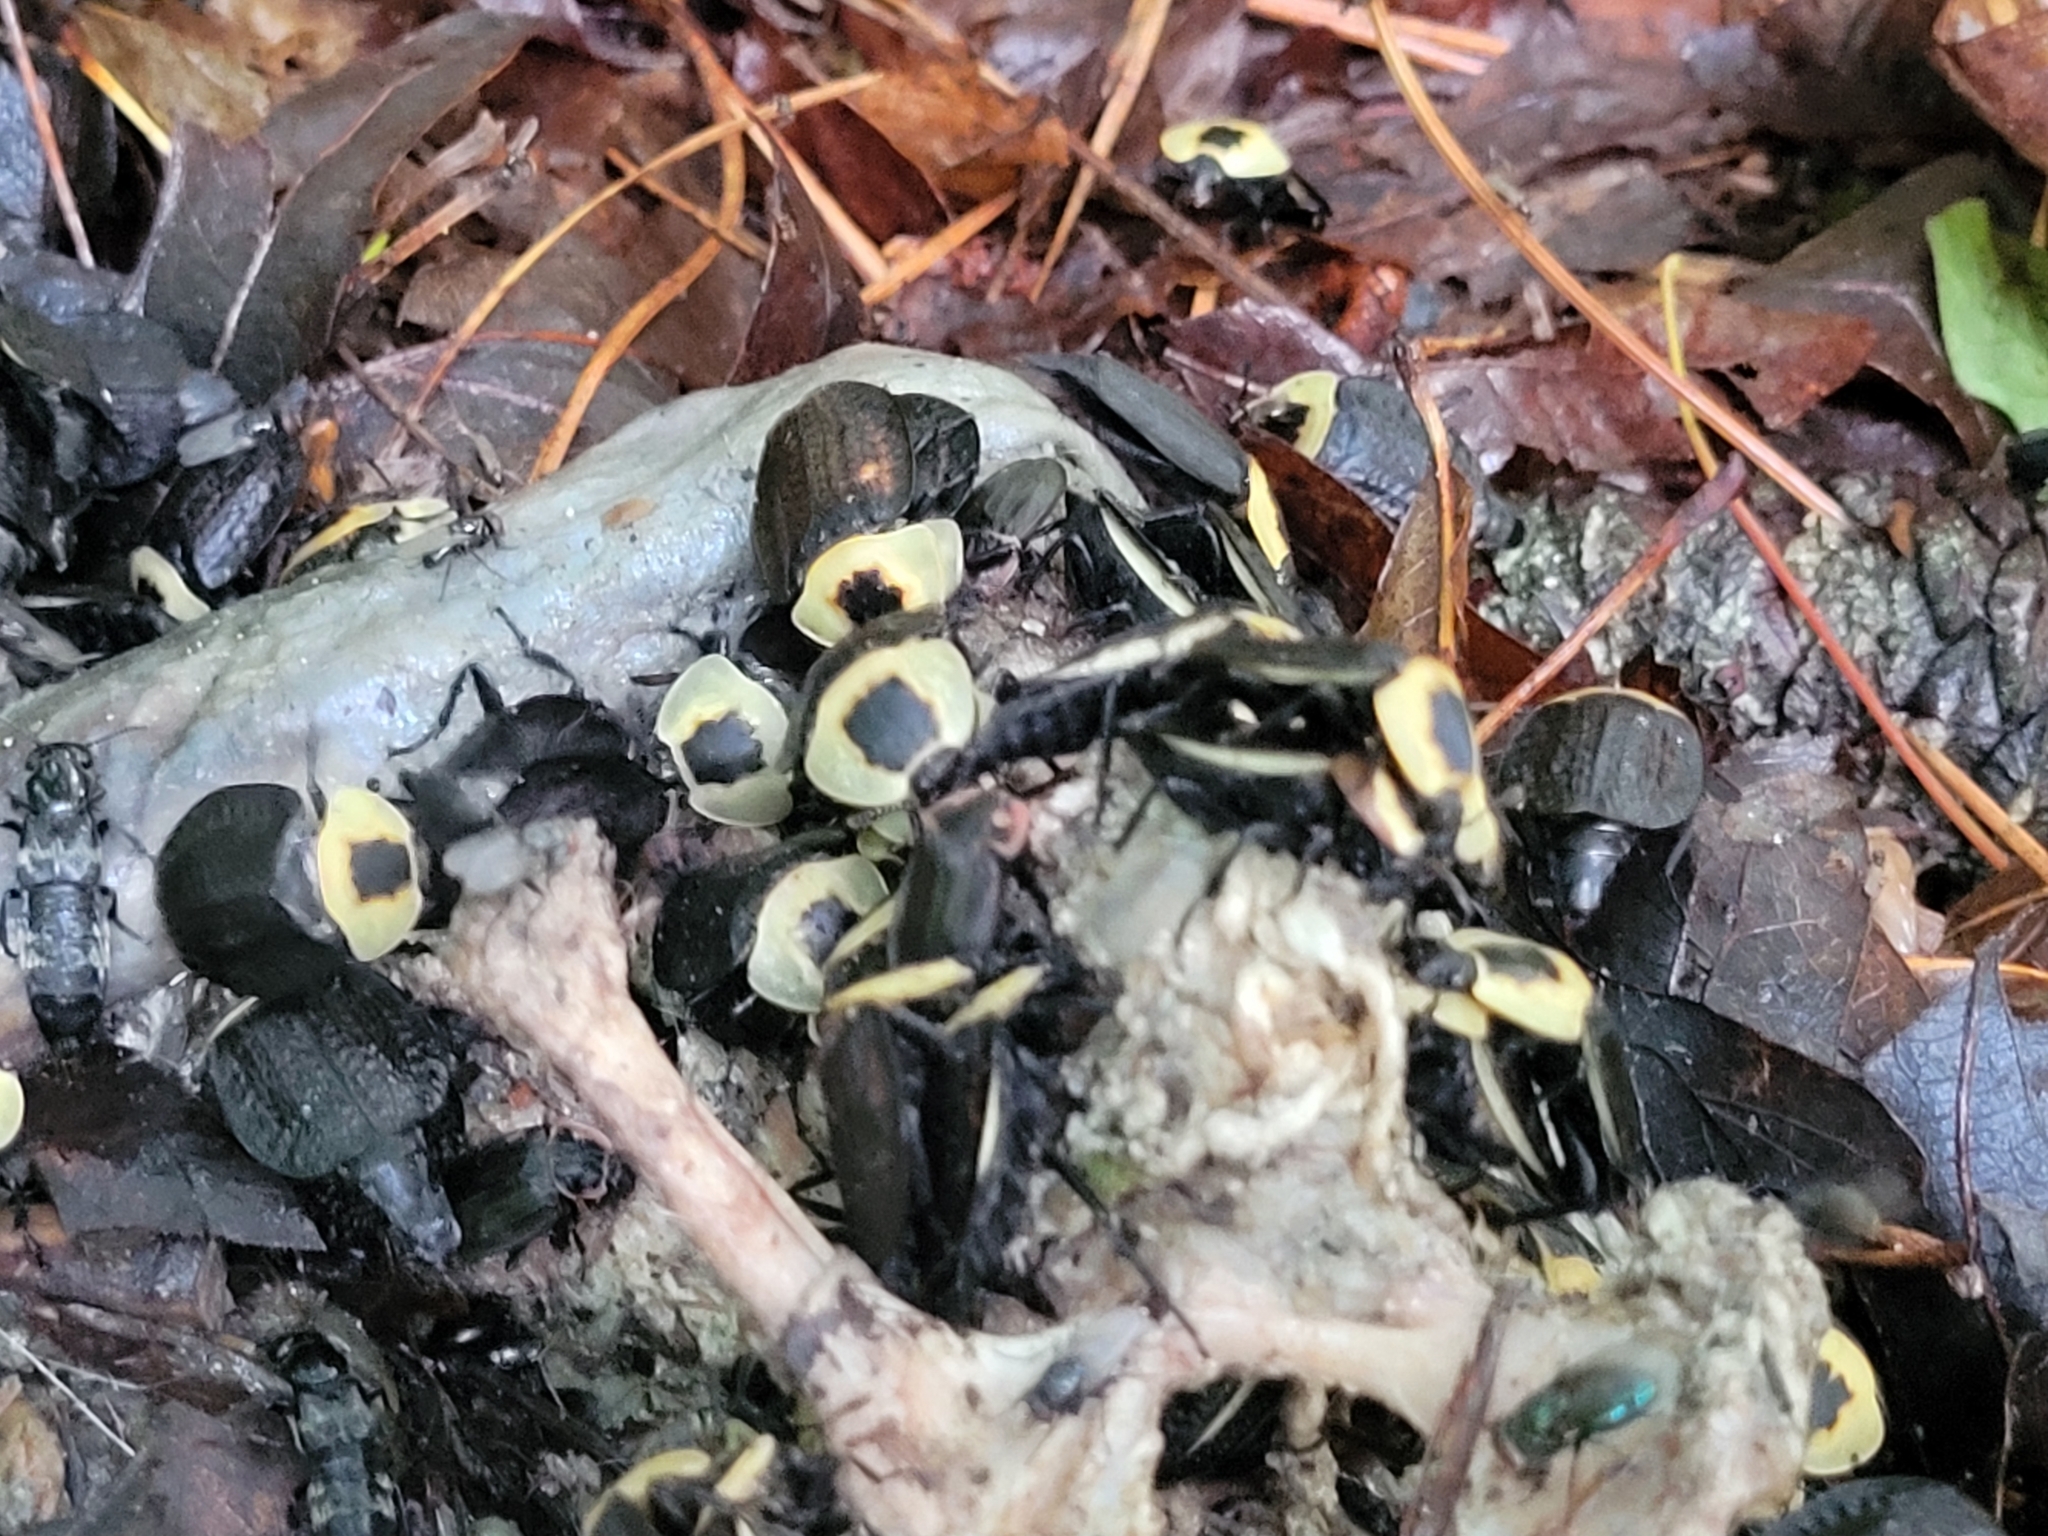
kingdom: Animalia
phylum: Arthropoda
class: Insecta
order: Coleoptera
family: Staphylinidae
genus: Necrophila
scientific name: Necrophila americana
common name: American carrion beetle
